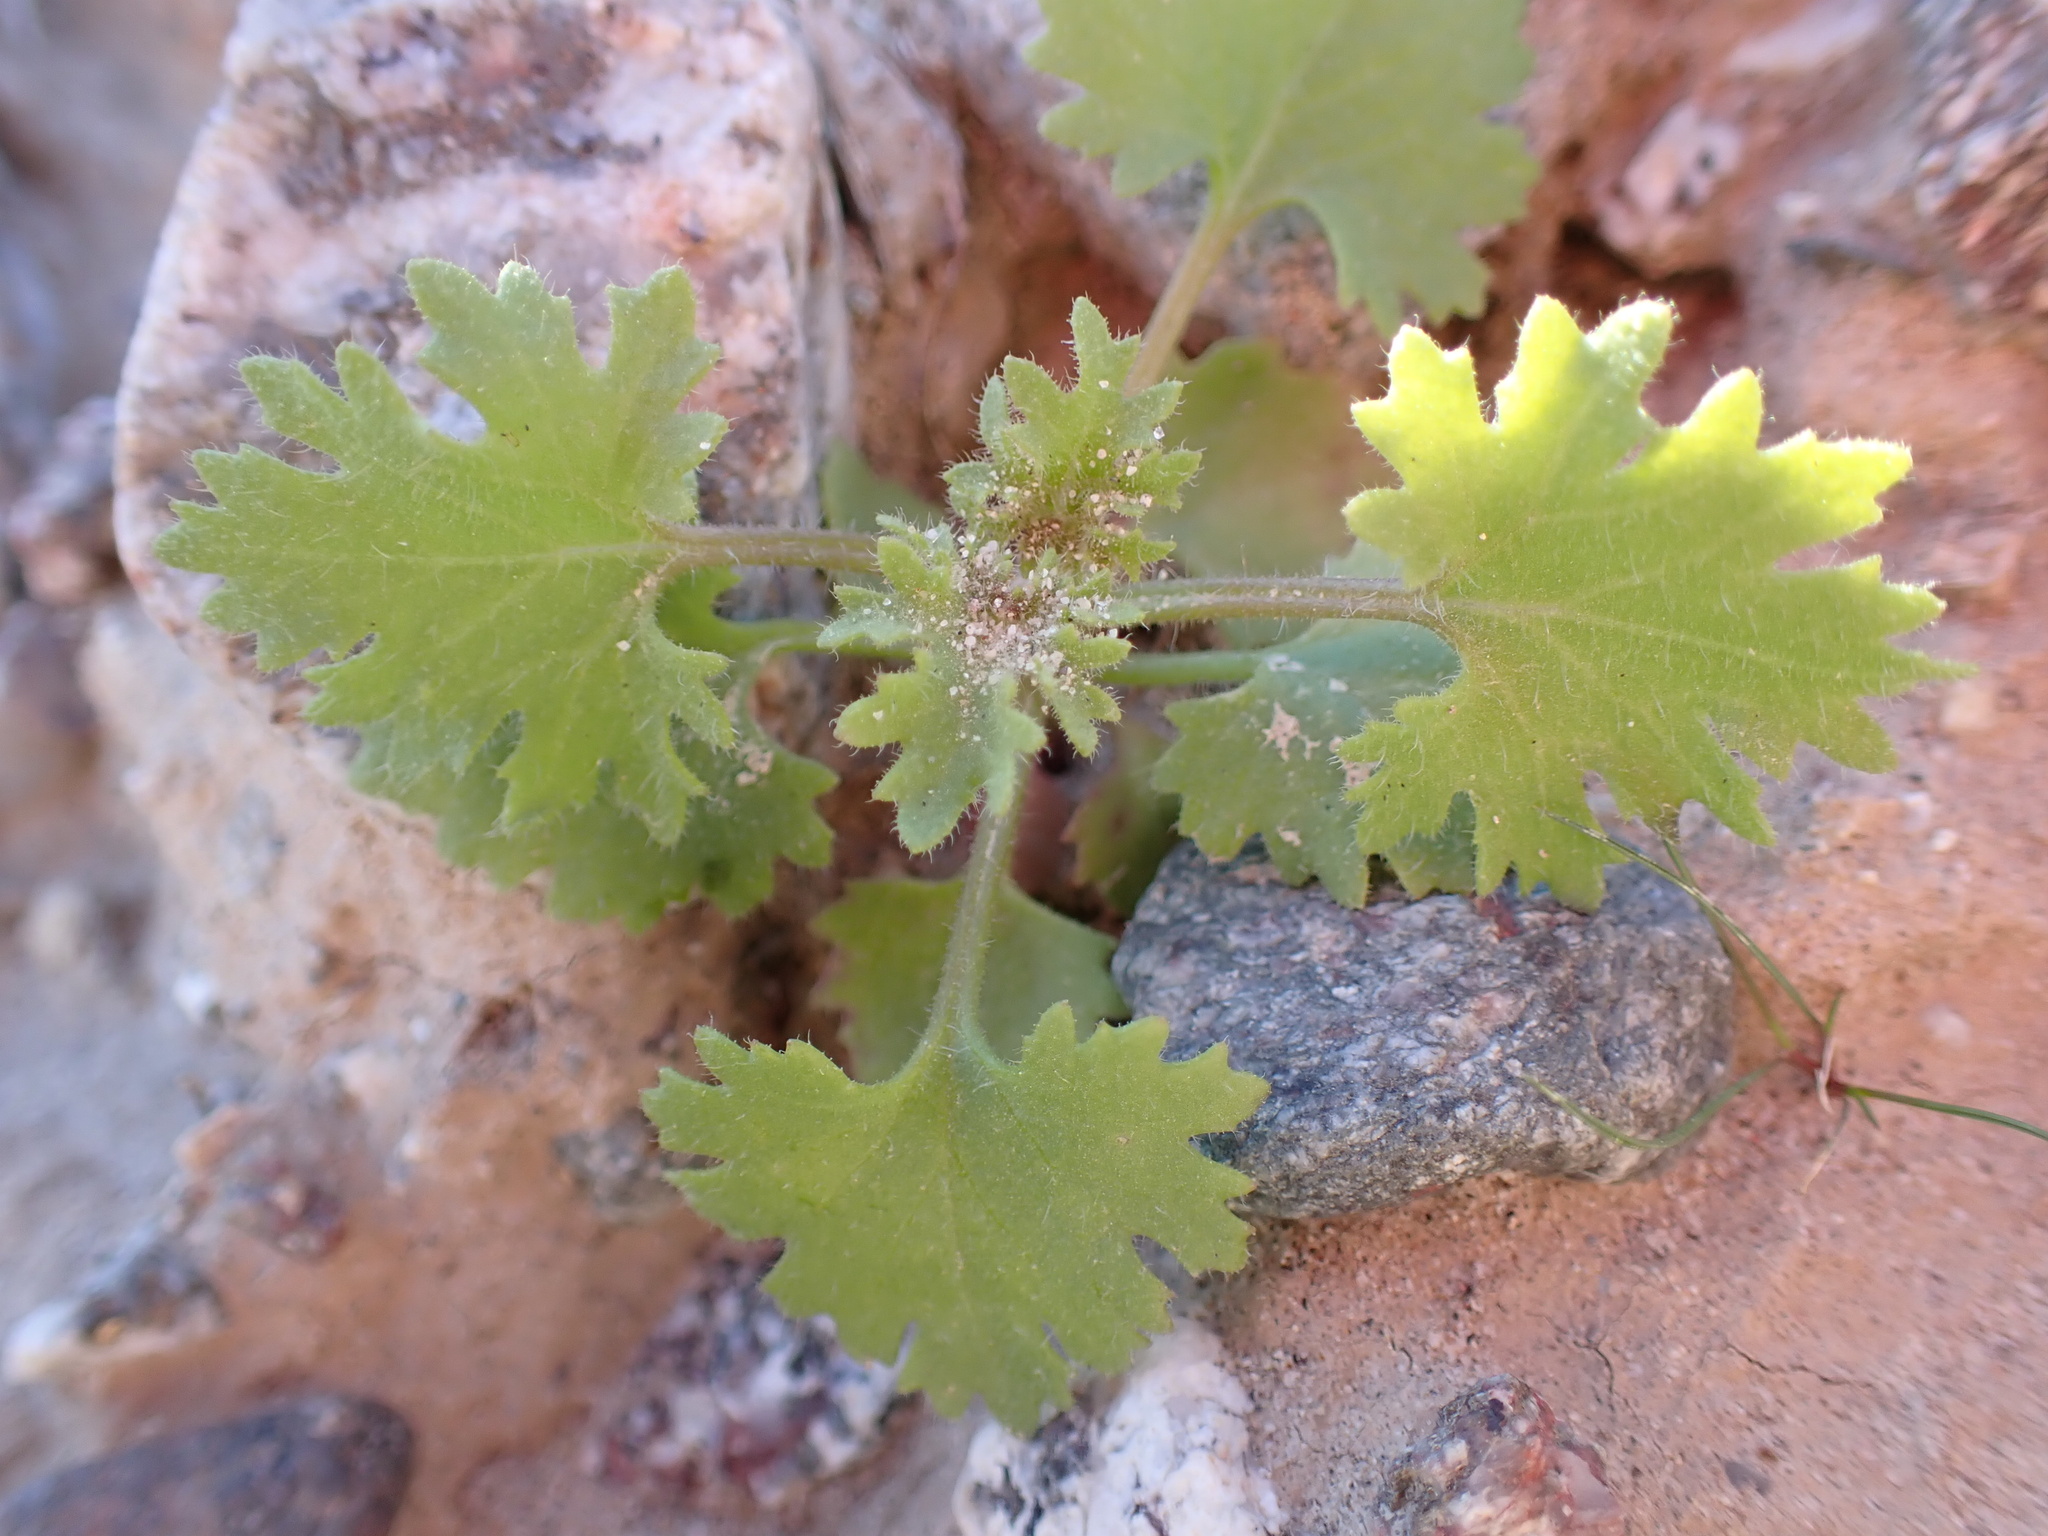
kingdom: Plantae
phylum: Tracheophyta
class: Magnoliopsida
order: Asterales
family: Asteraceae
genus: Laphamia
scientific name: Laphamia emoryi
